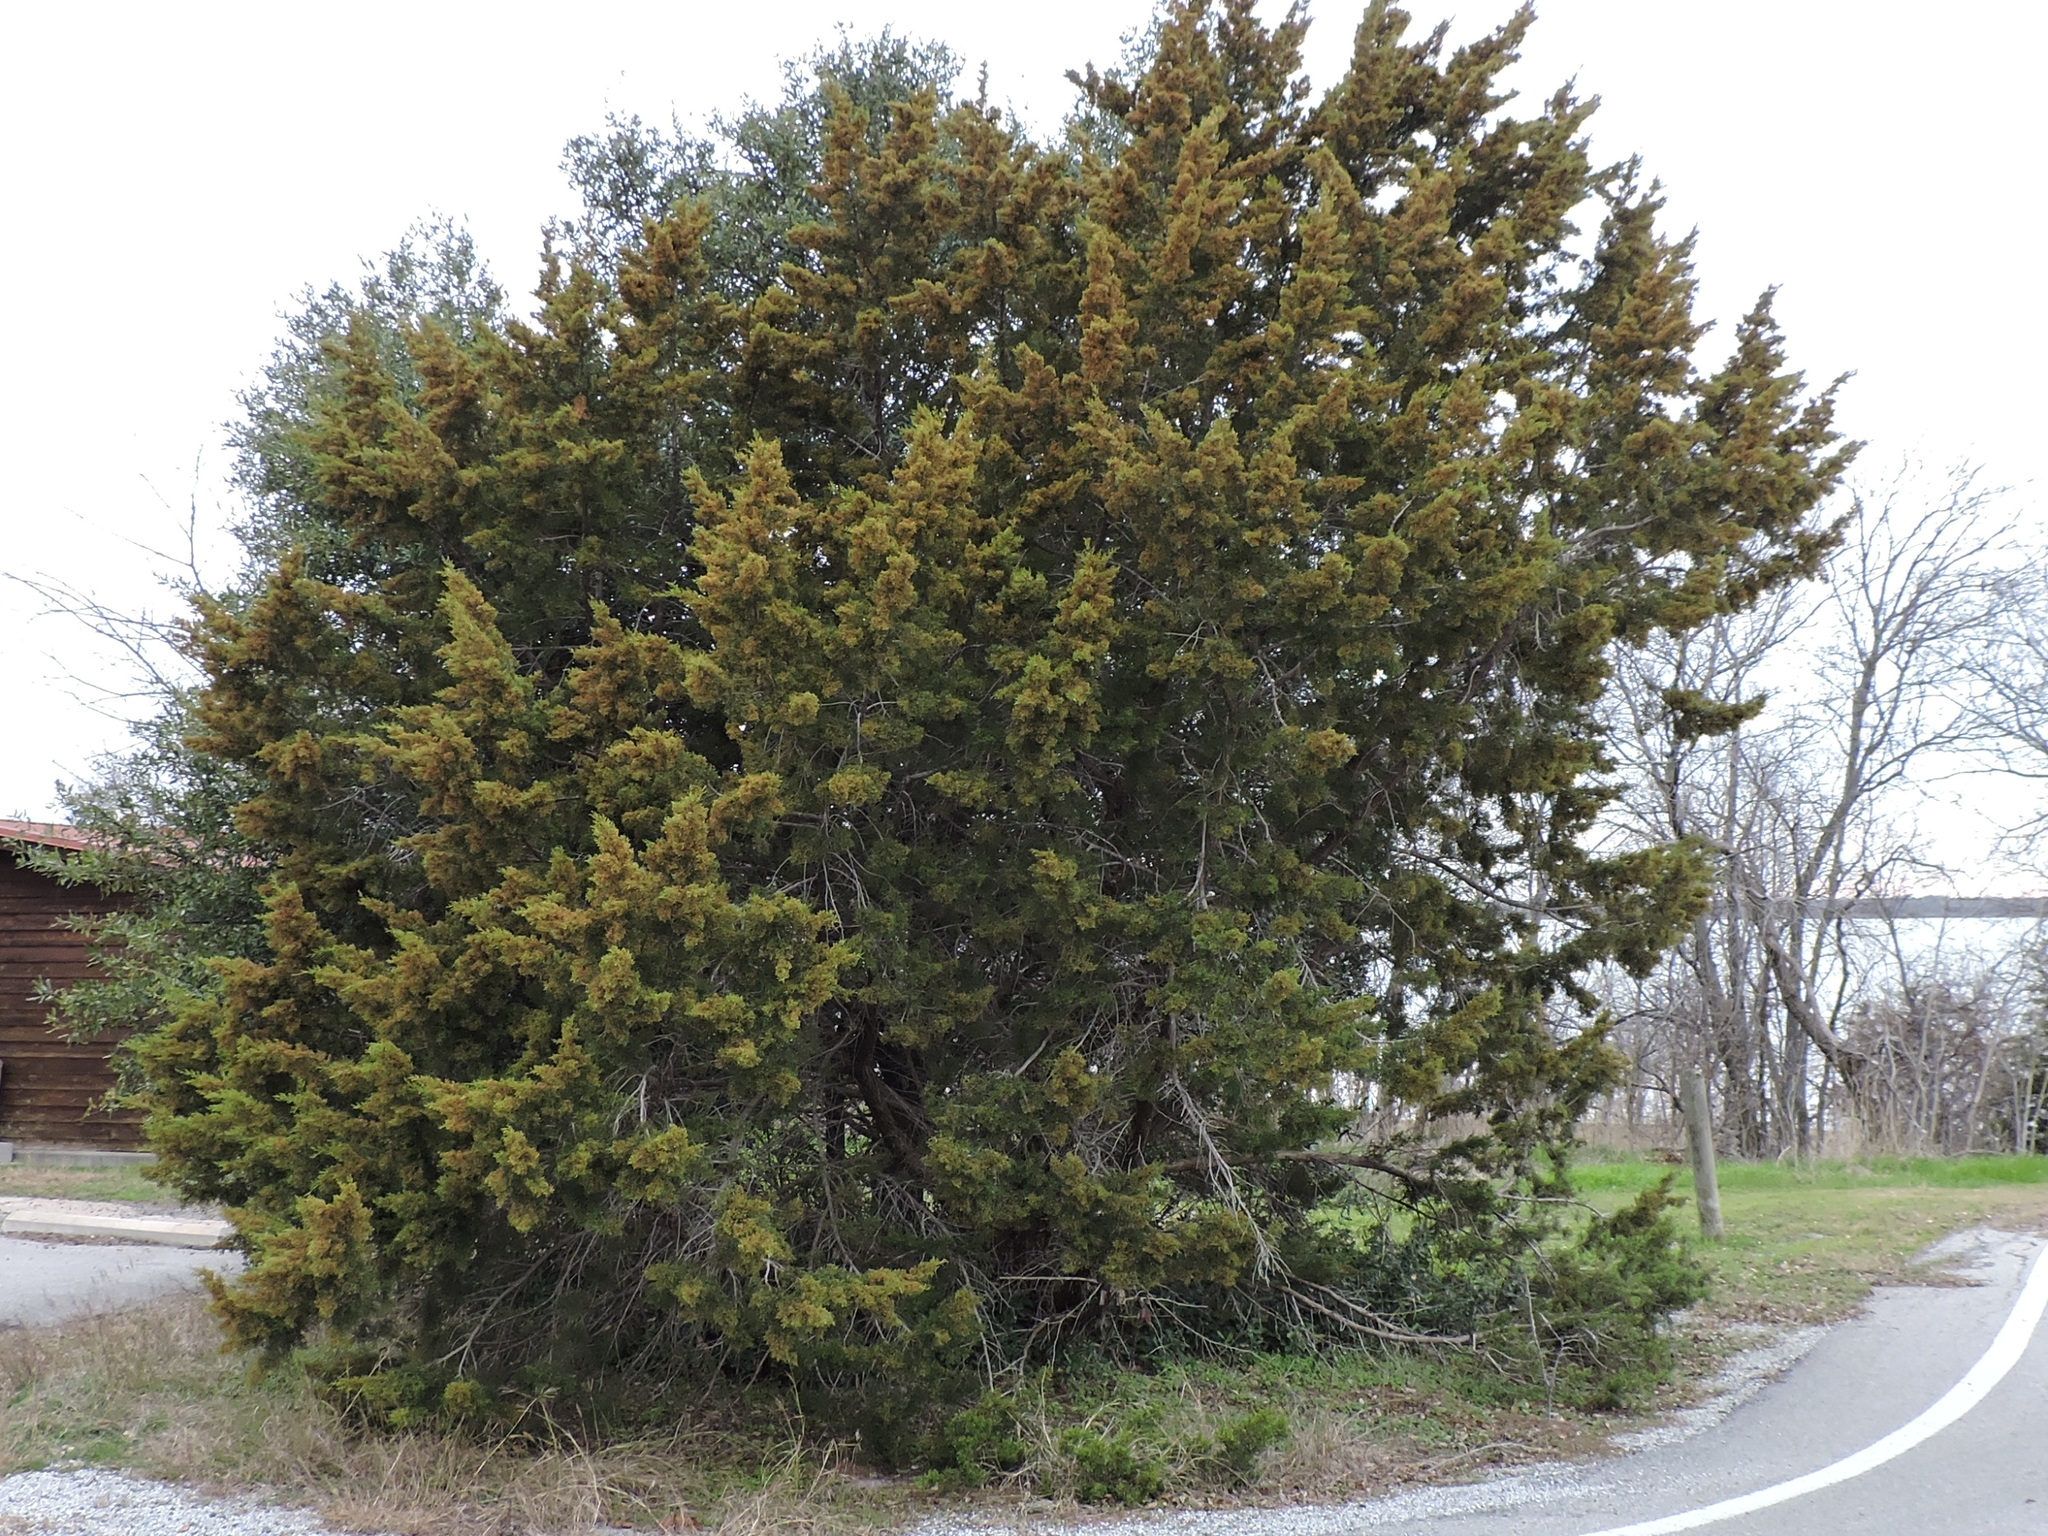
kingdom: Plantae
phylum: Tracheophyta
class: Pinopsida
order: Pinales
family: Cupressaceae
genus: Juniperus
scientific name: Juniperus virginiana
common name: Red juniper
